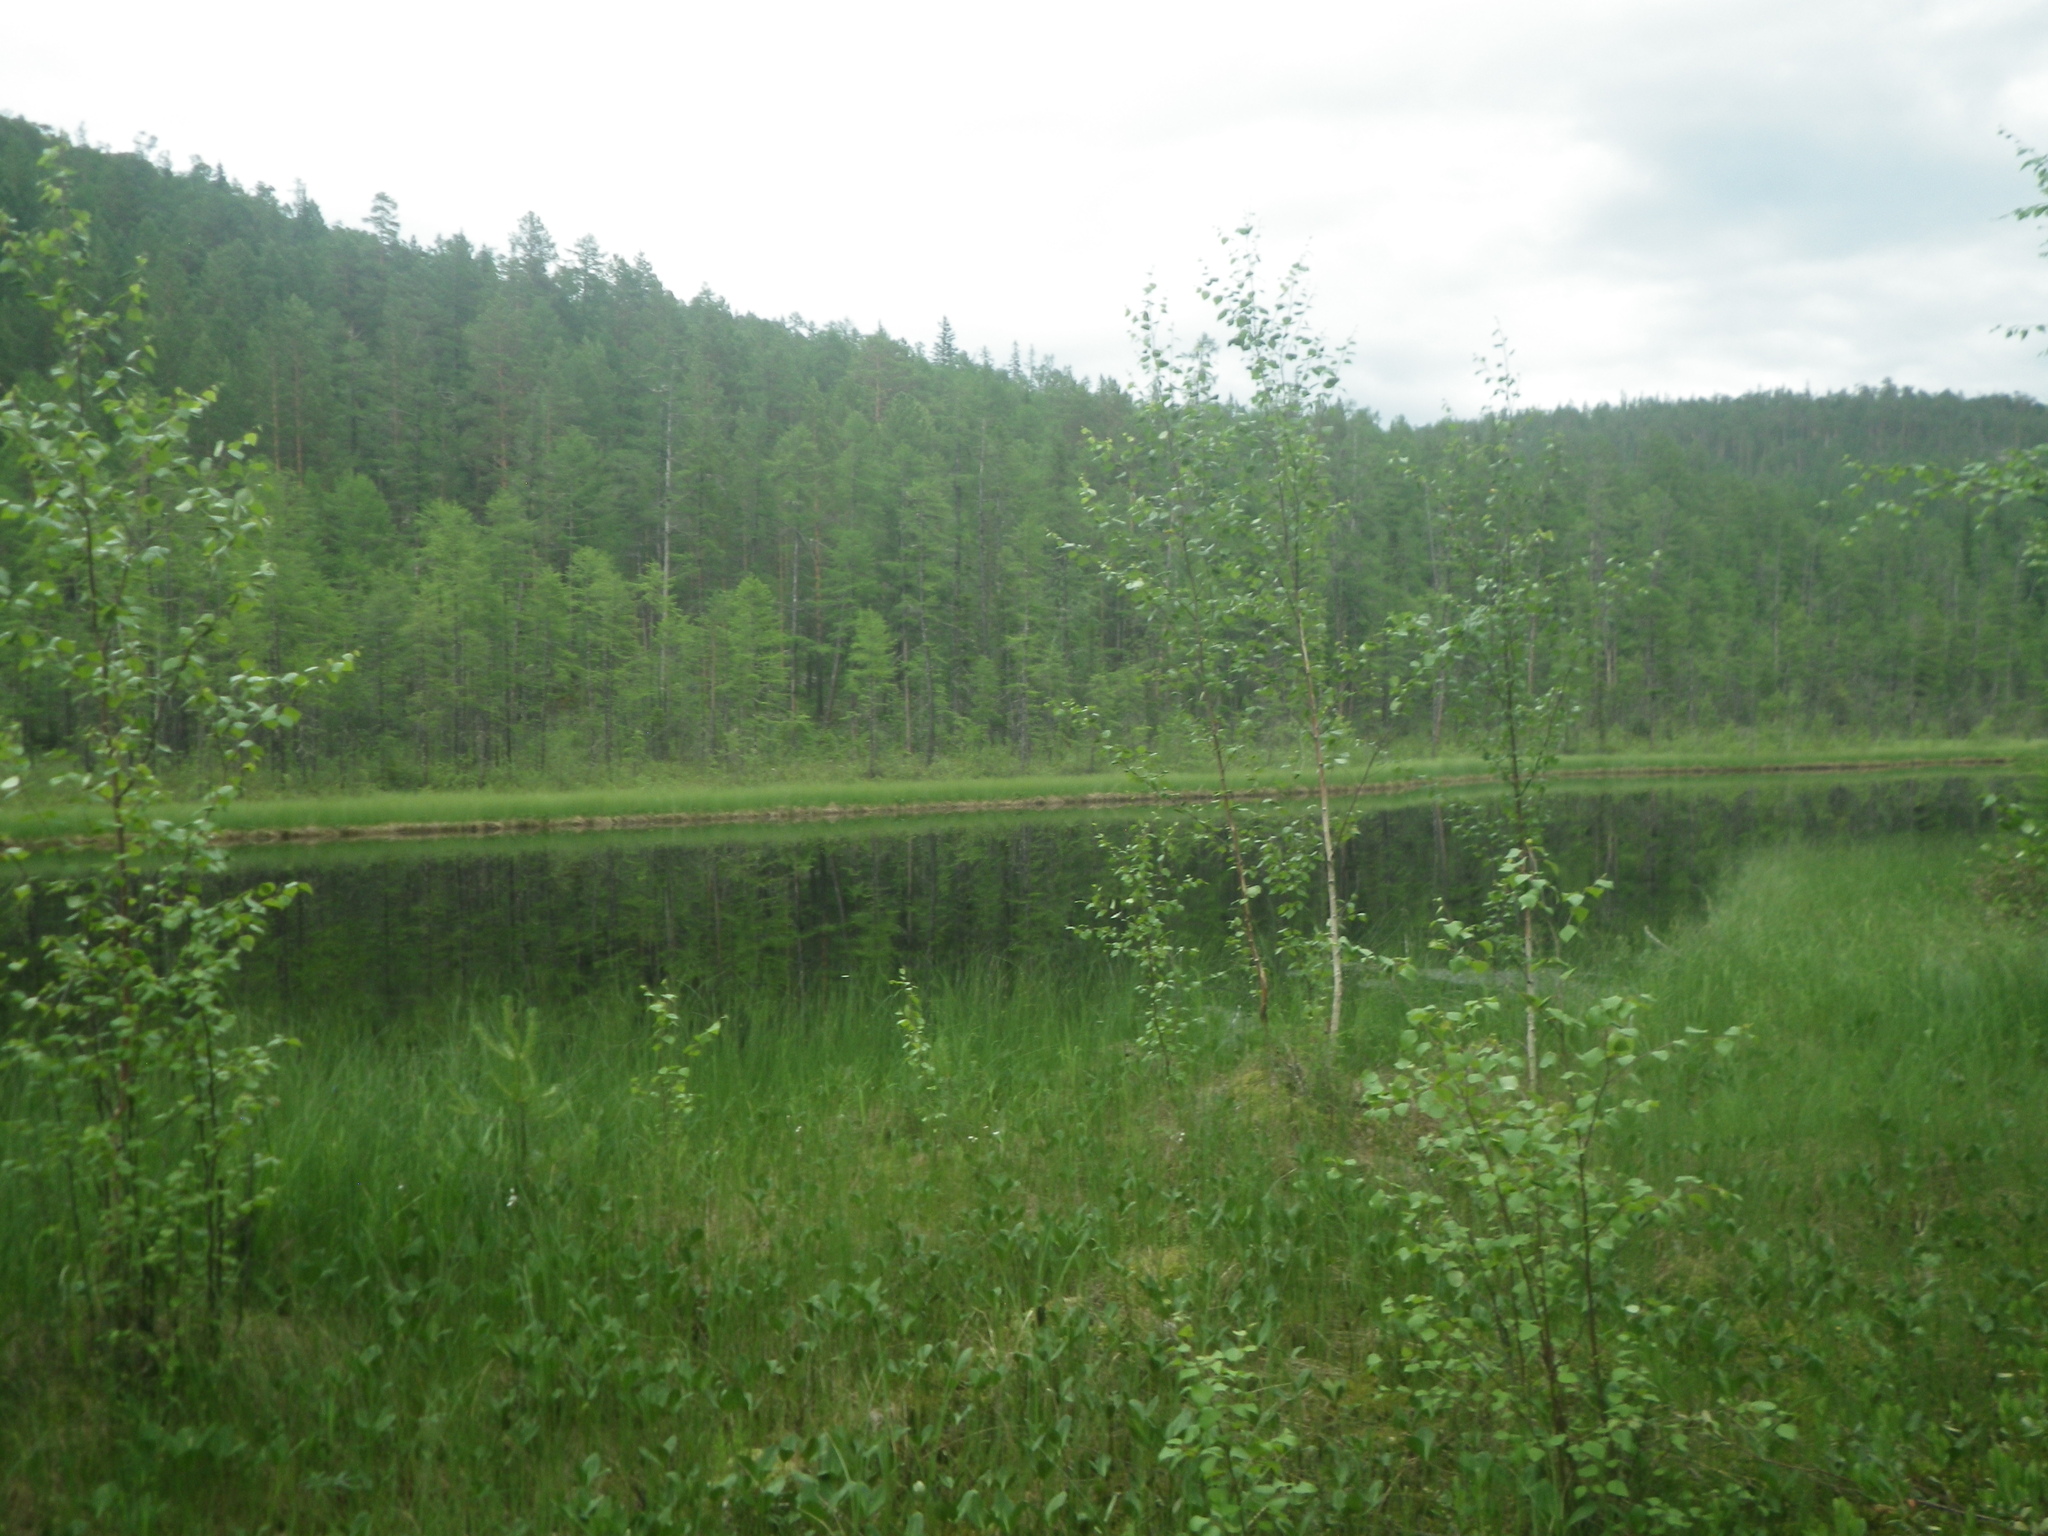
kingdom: Plantae
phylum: Tracheophyta
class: Pinopsida
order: Pinales
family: Pinaceae
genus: Larix
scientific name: Larix gmelinii
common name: Dahurian larch
